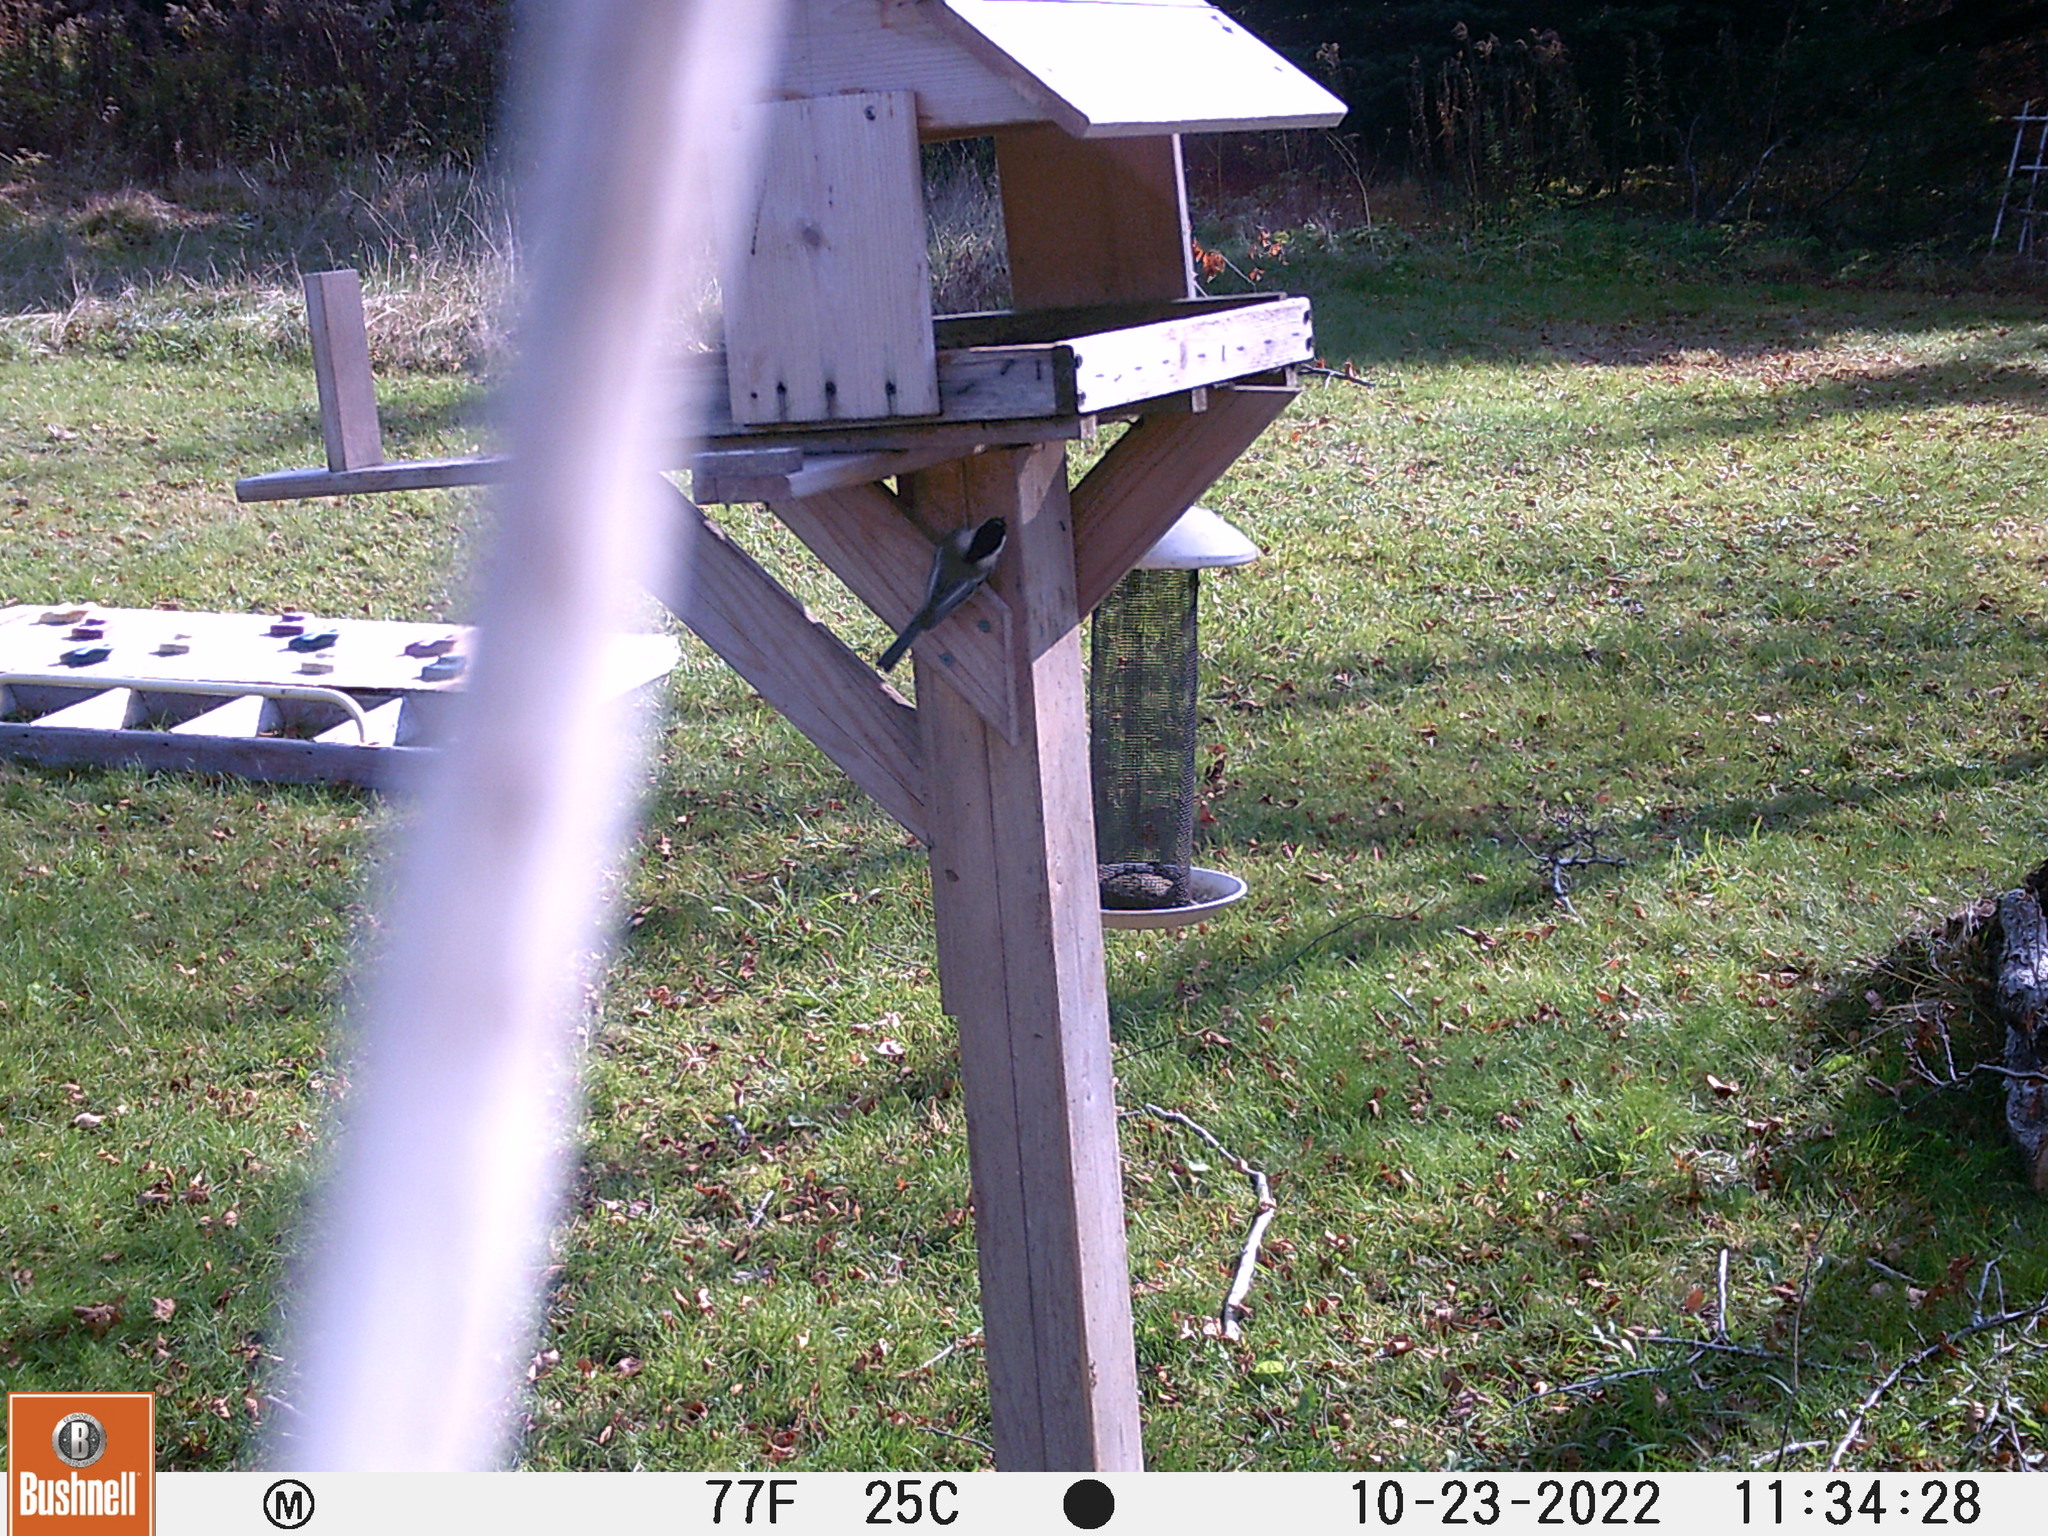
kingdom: Animalia
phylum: Chordata
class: Aves
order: Passeriformes
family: Paridae
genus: Poecile
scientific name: Poecile atricapillus
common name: Black-capped chickadee
